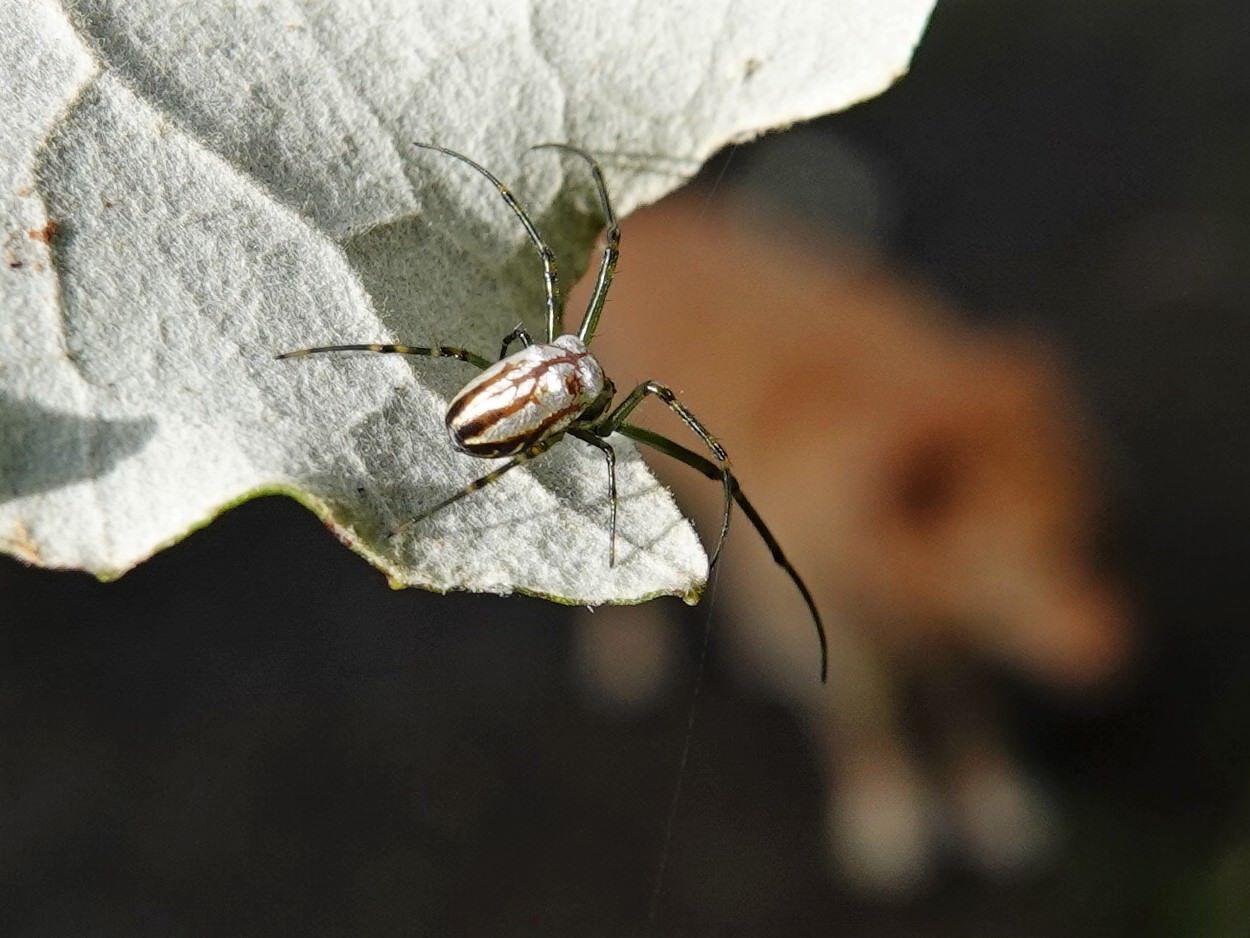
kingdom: Animalia
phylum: Arthropoda
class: Arachnida
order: Araneae
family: Tetragnathidae
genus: Leucauge
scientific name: Leucauge dromedaria
